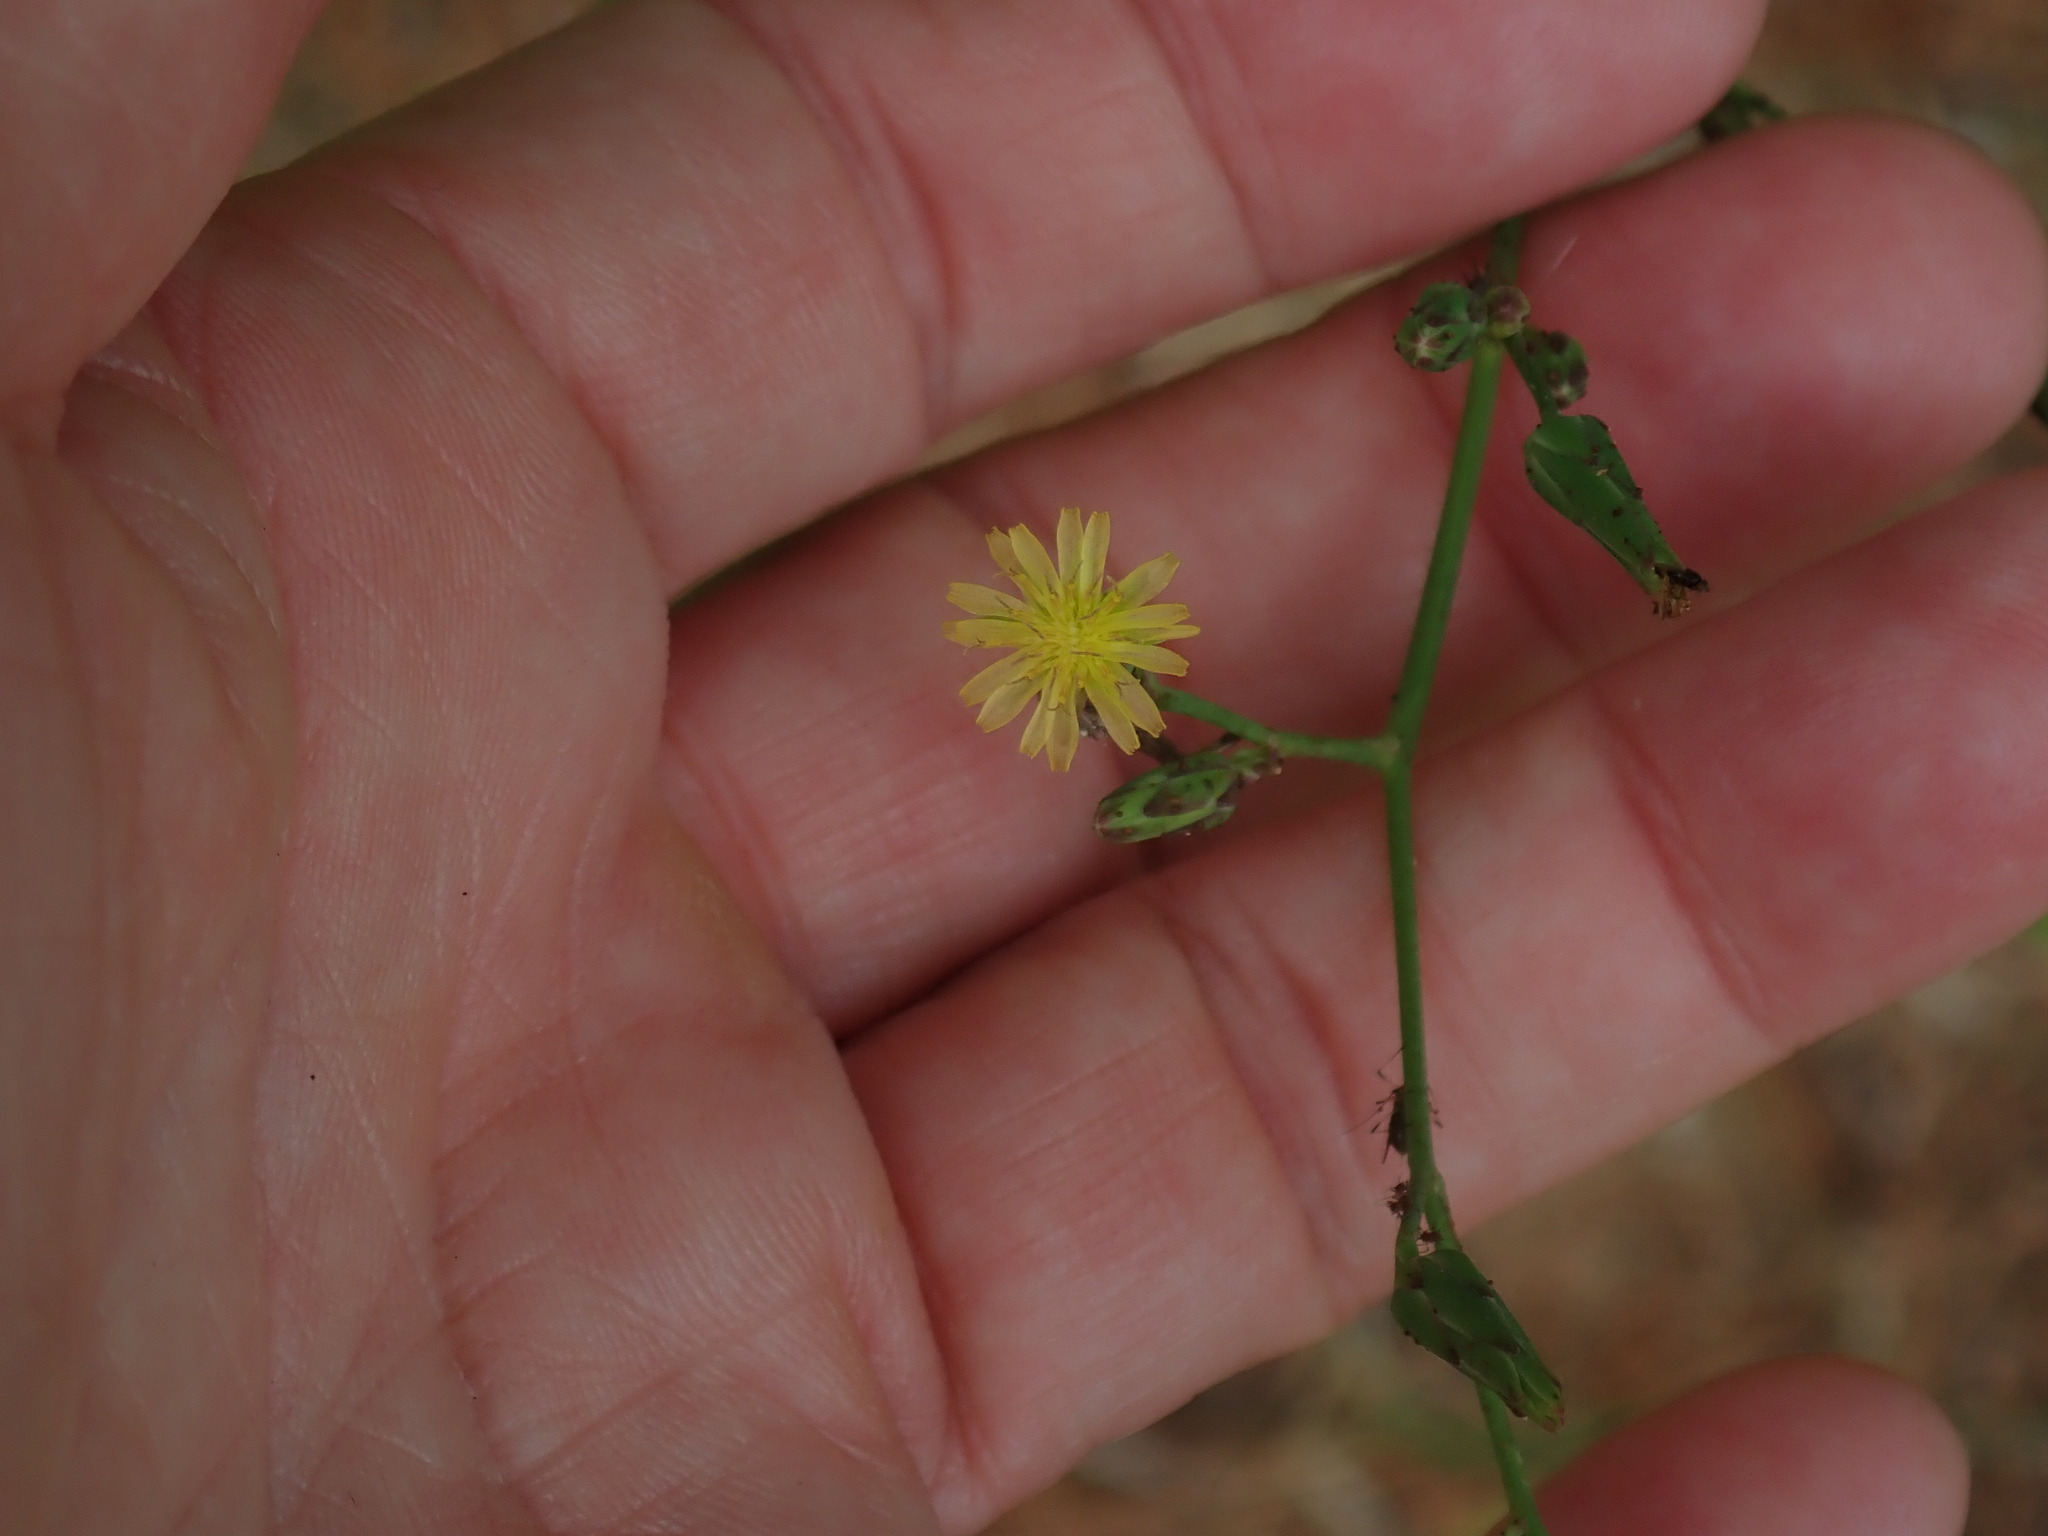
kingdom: Plantae
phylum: Tracheophyta
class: Magnoliopsida
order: Asterales
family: Asteraceae
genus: Lactuca
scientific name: Lactuca canadensis
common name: Canada lettuce
